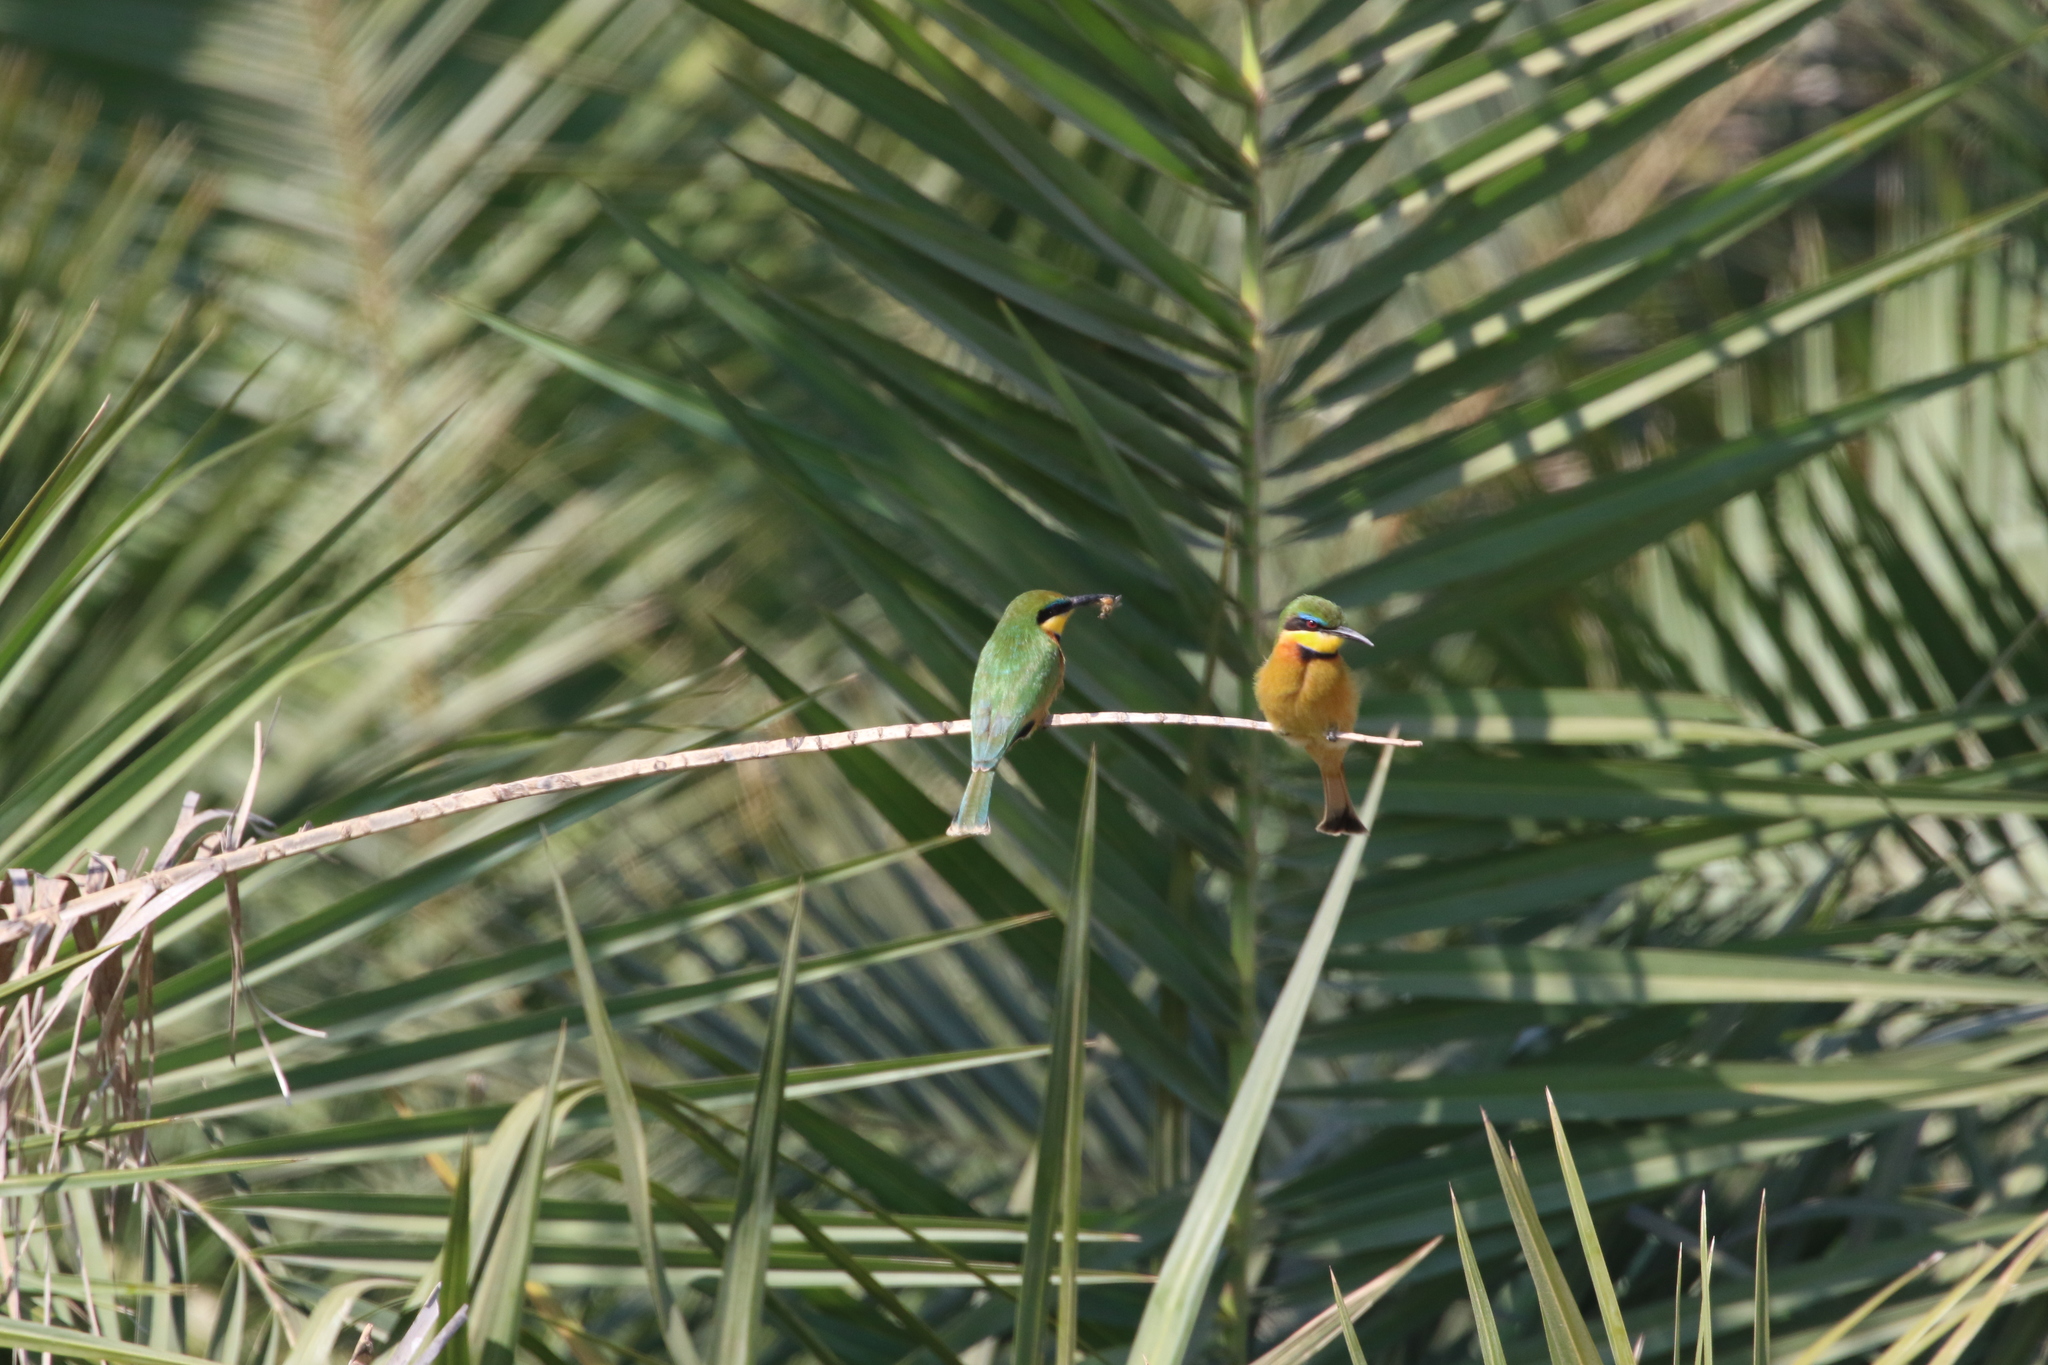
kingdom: Animalia
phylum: Chordata
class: Aves
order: Coraciiformes
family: Meropidae
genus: Merops
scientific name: Merops pusillus
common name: Little bee-eater
